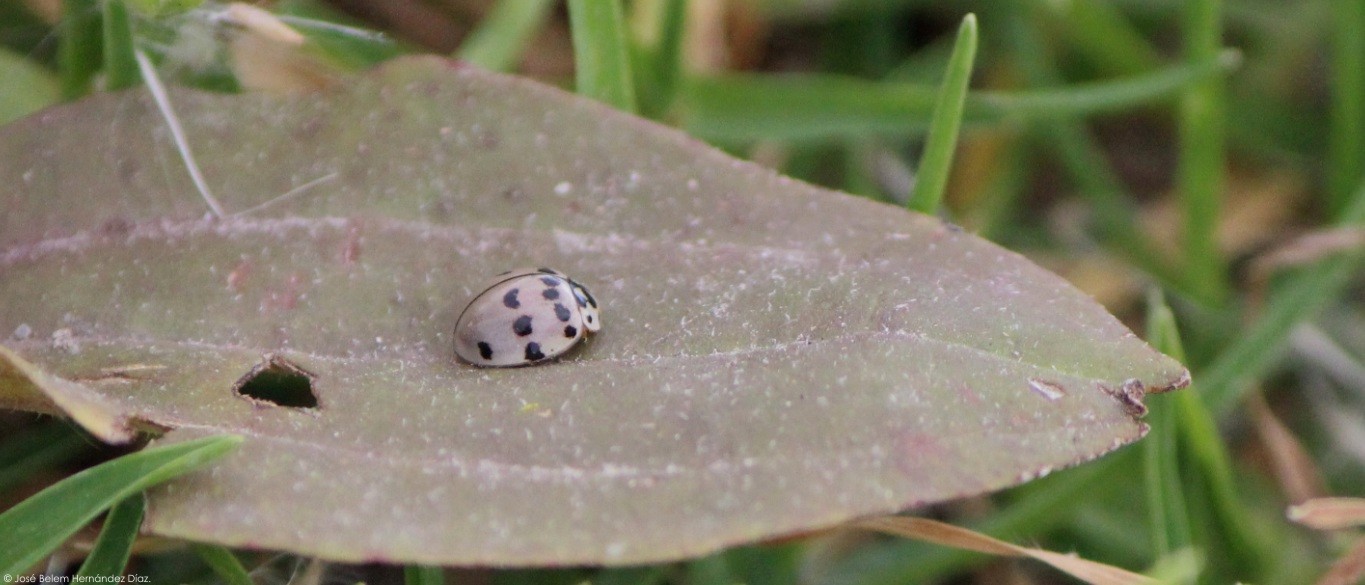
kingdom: Animalia
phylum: Arthropoda
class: Insecta
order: Coleoptera
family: Coccinellidae
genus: Olla
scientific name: Olla v-nigrum
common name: Ashy gray lady beetle
